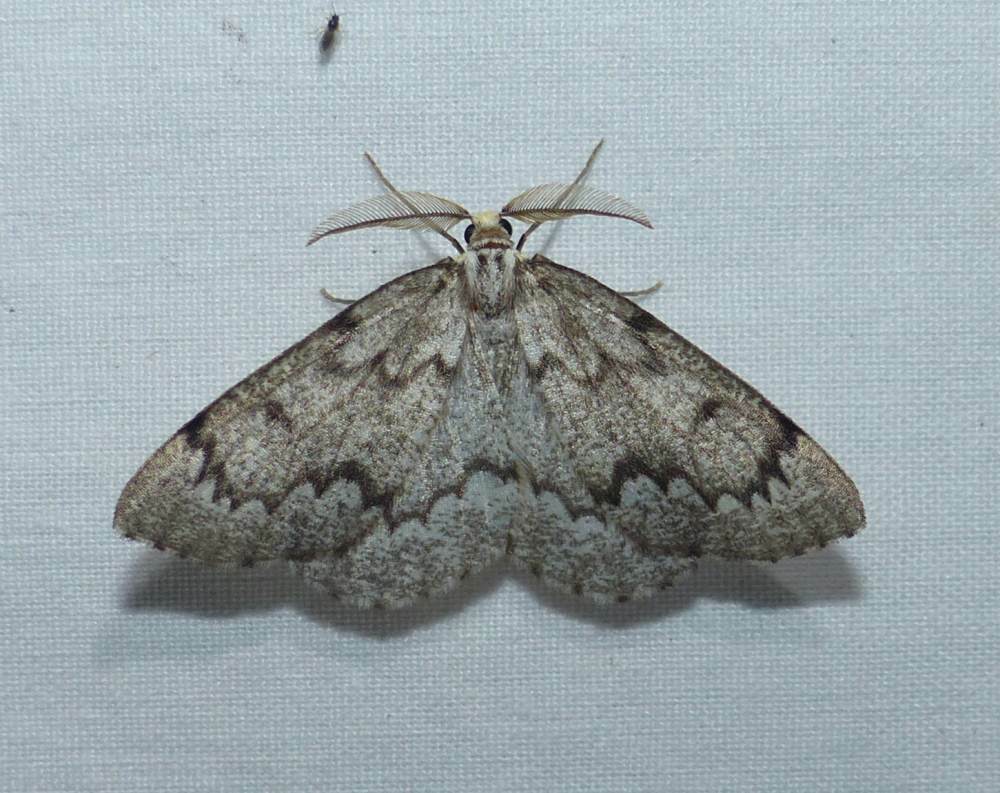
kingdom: Animalia
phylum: Arthropoda
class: Insecta
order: Lepidoptera
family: Geometridae
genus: Nepytia
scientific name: Nepytia canosaria
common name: False hemlock looper
